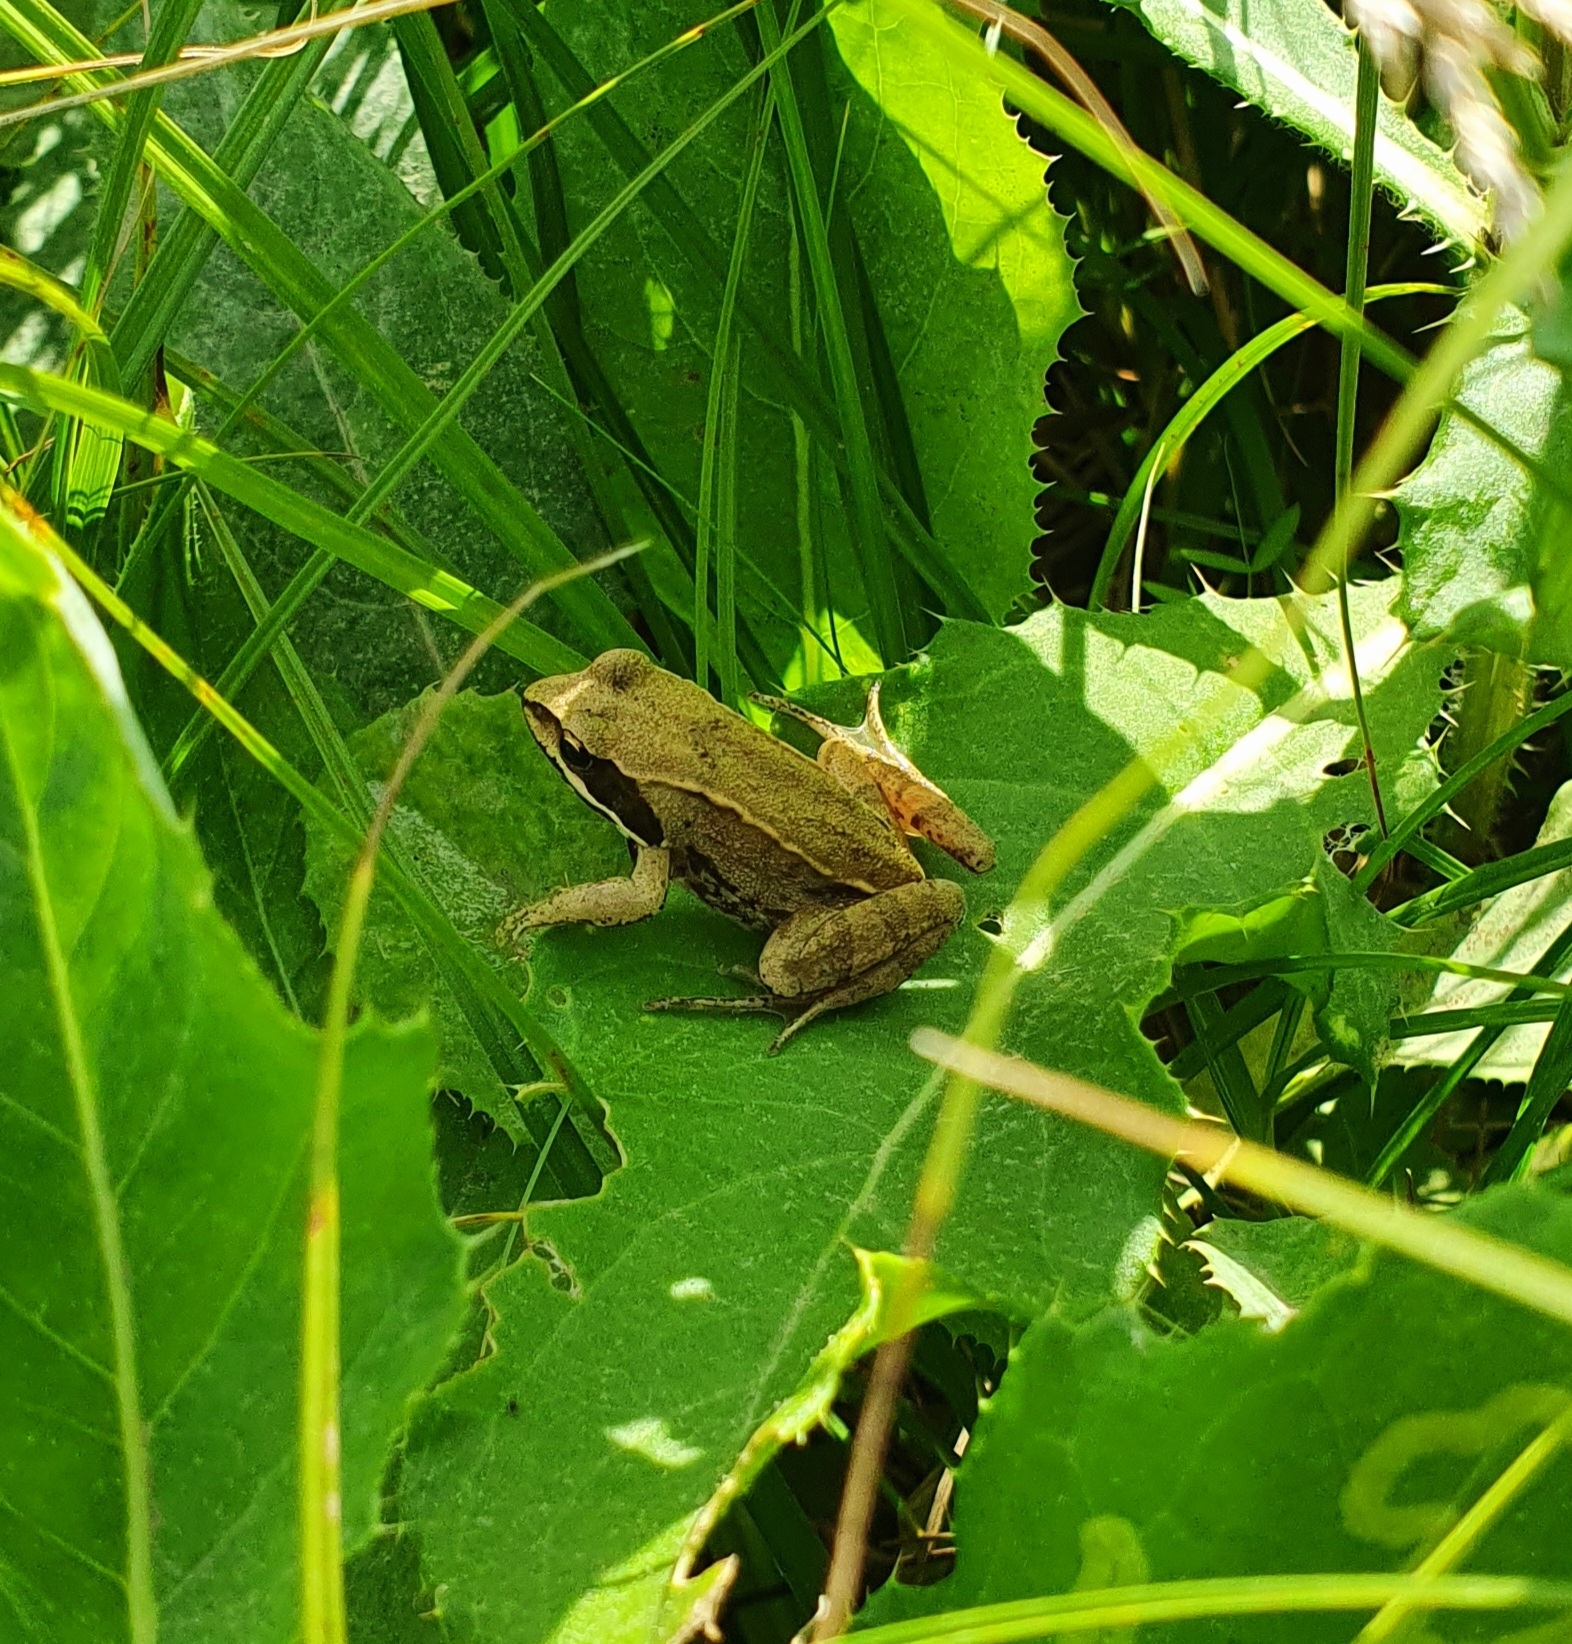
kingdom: Animalia
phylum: Chordata
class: Amphibia
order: Anura
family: Ranidae
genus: Rana
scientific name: Rana arvalis
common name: Moor frog
